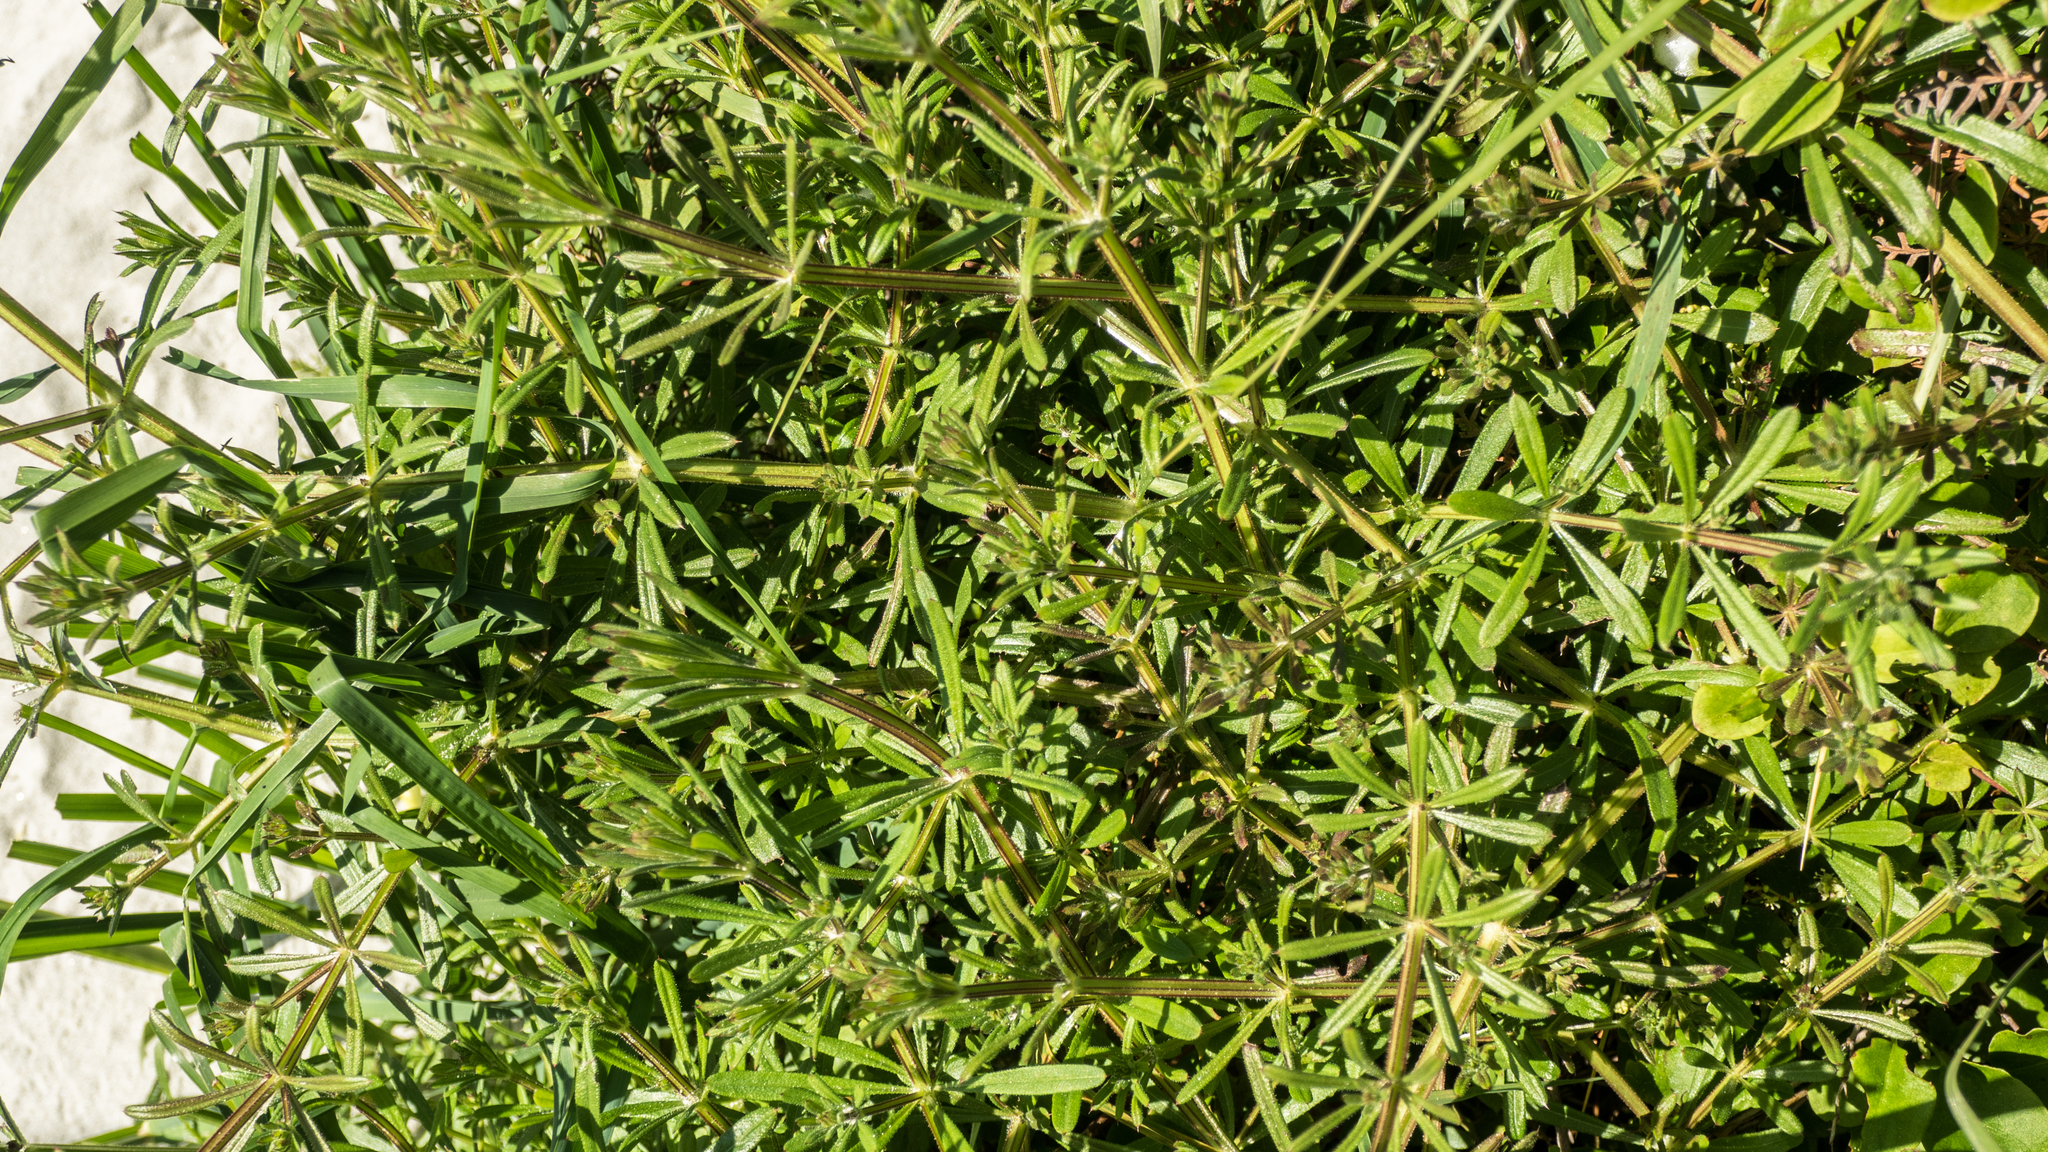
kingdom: Plantae
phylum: Tracheophyta
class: Magnoliopsida
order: Gentianales
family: Rubiaceae
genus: Galium
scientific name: Galium aparine
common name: Cleavers
